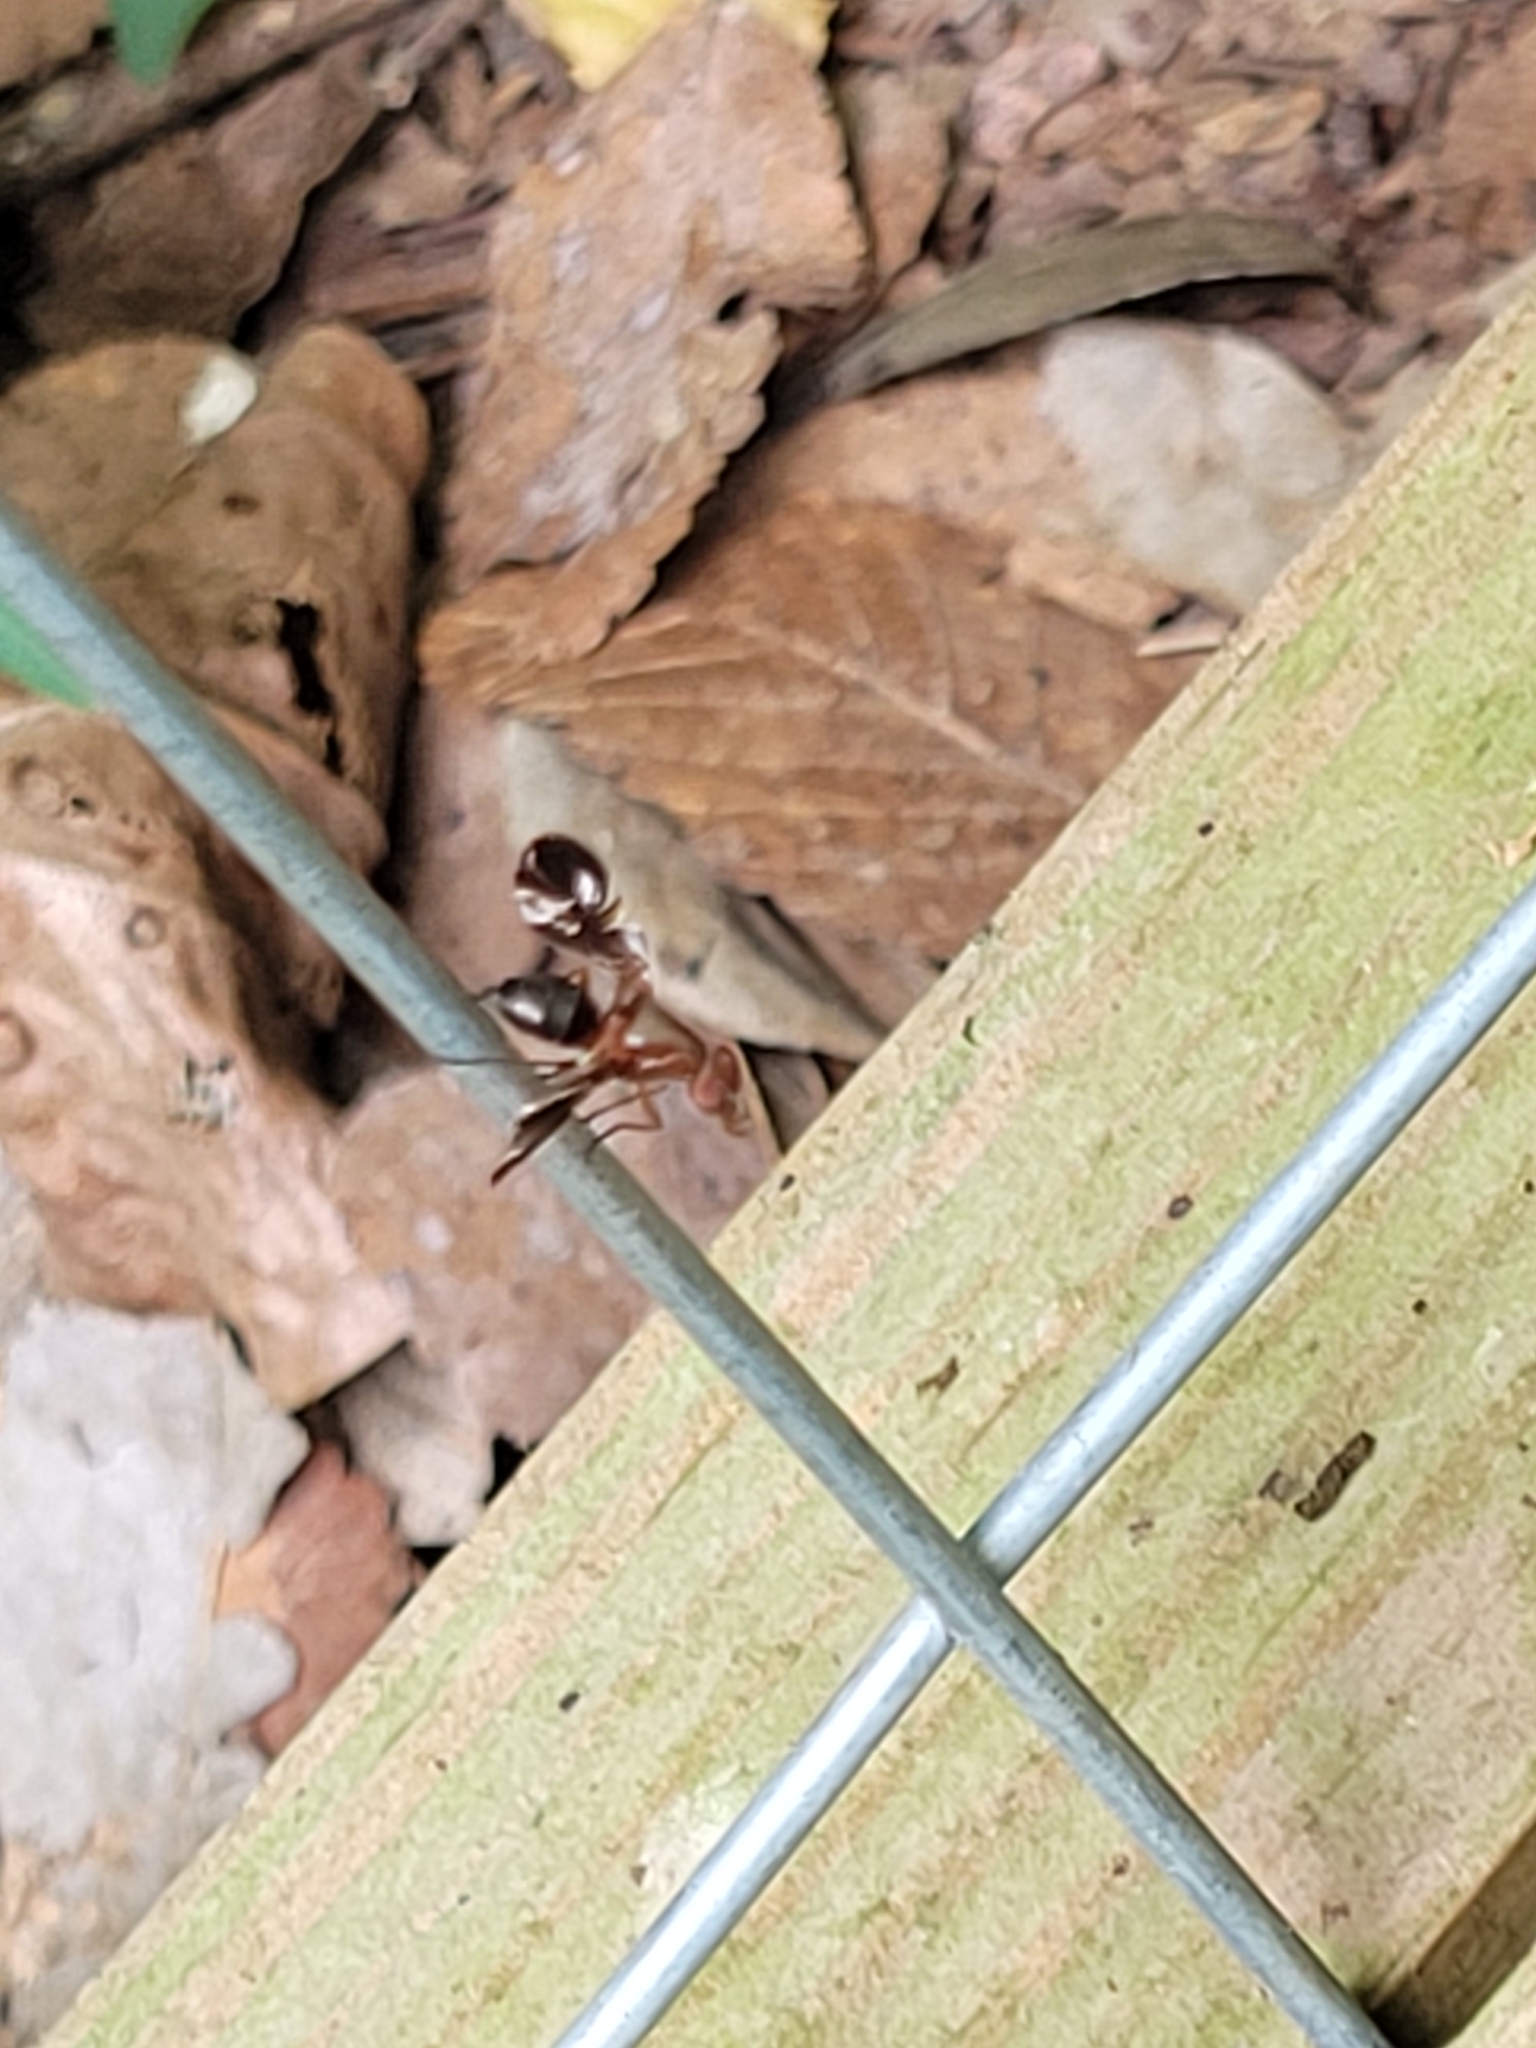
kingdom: Animalia
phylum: Arthropoda
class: Insecta
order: Diptera
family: Ulidiidae
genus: Delphinia
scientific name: Delphinia picta
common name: Common picture-winged fly
